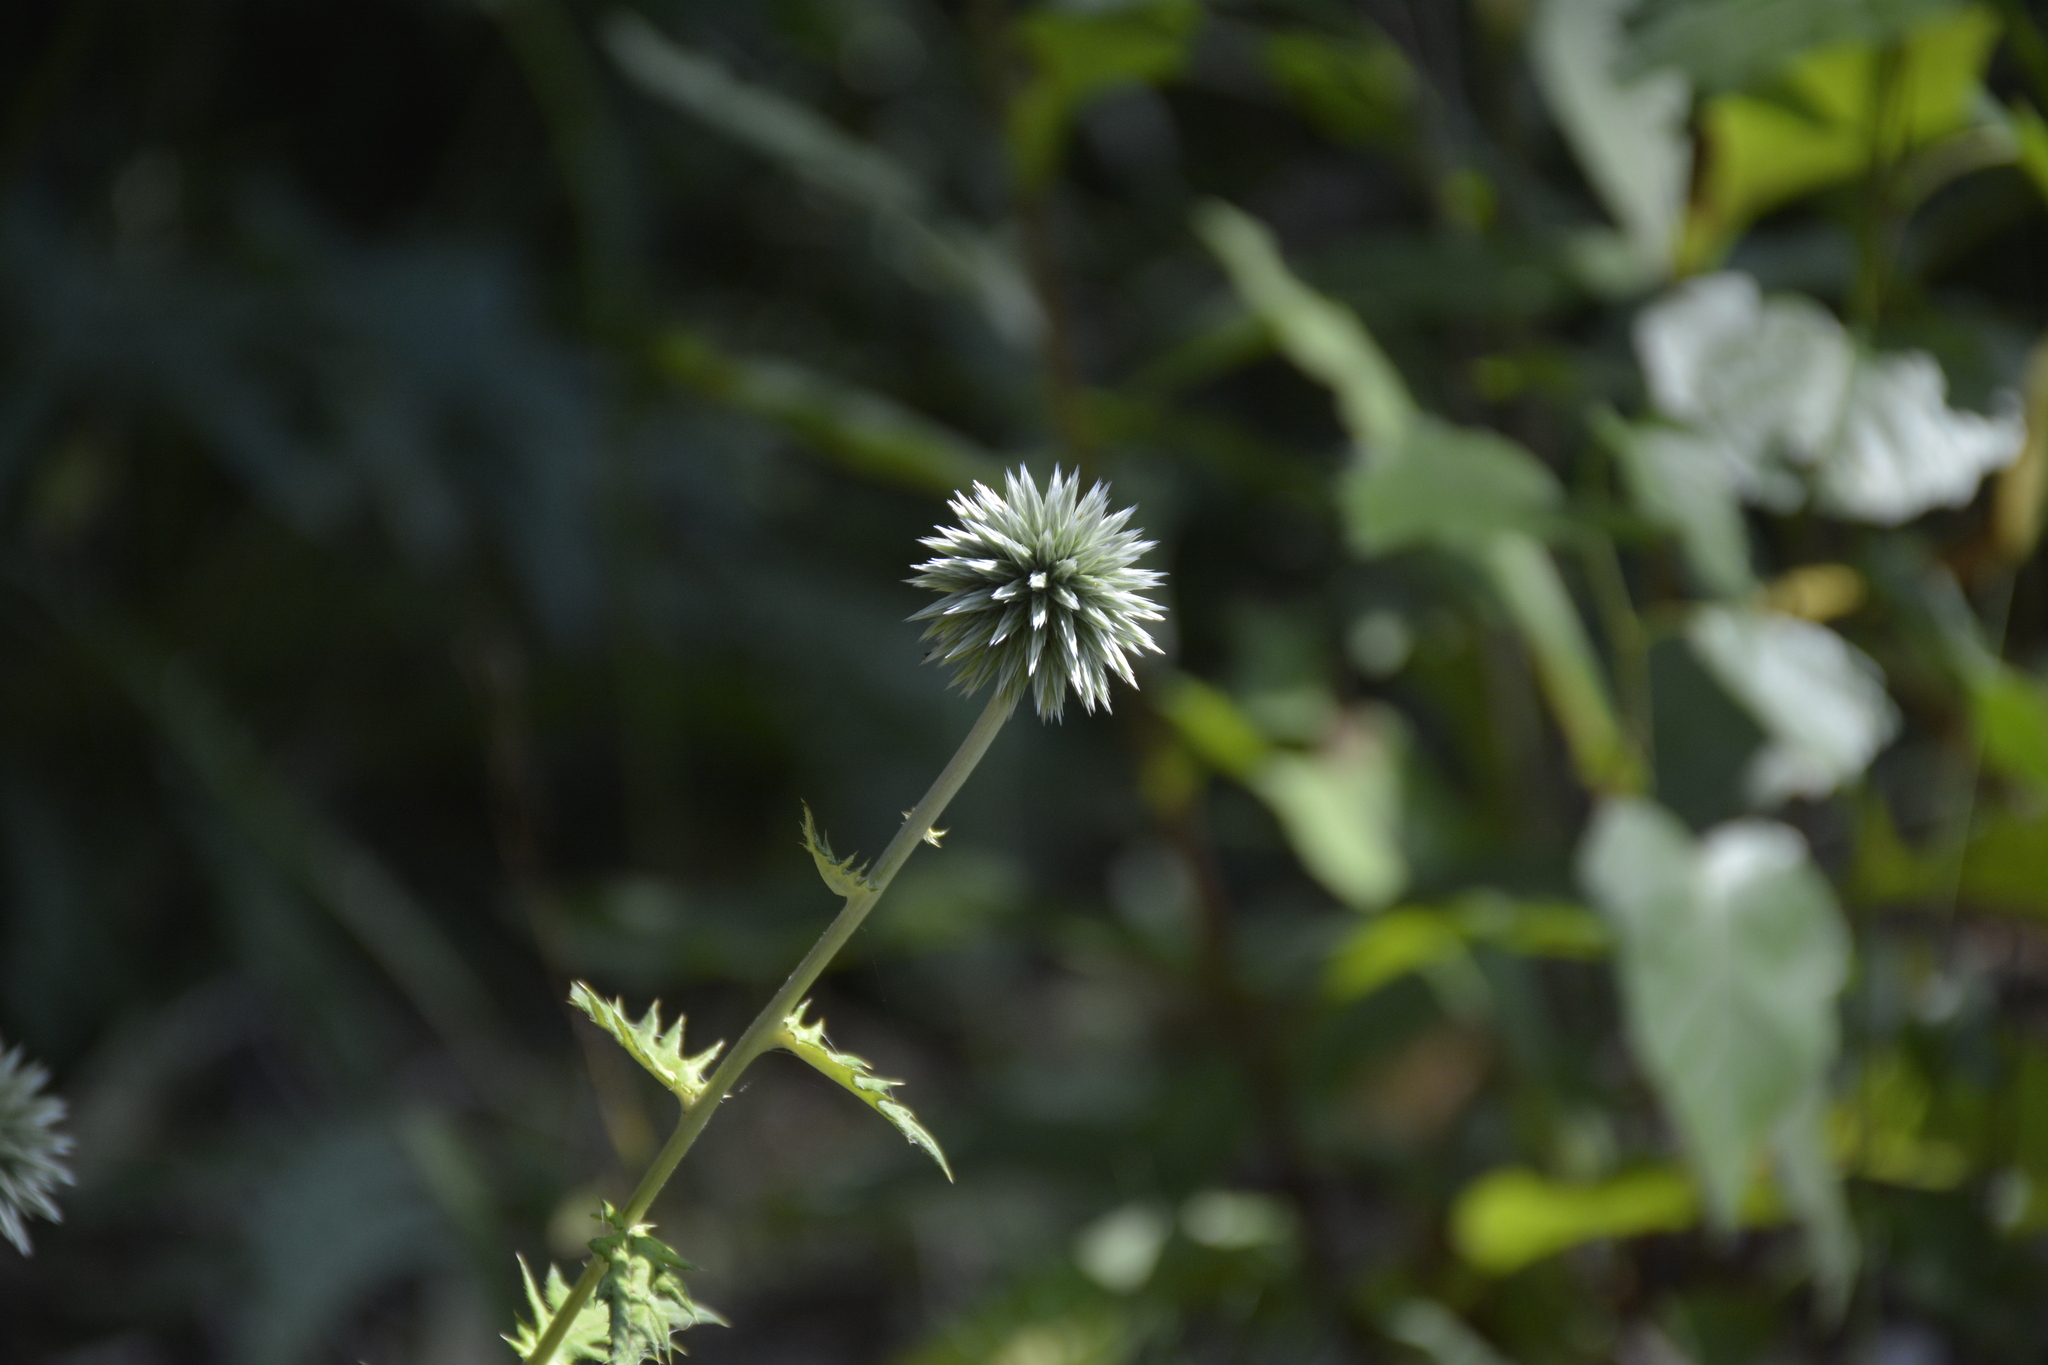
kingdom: Plantae
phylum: Tracheophyta
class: Magnoliopsida
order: Asterales
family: Asteraceae
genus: Echinops
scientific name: Echinops sphaerocephalus
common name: Glandular globe-thistle
